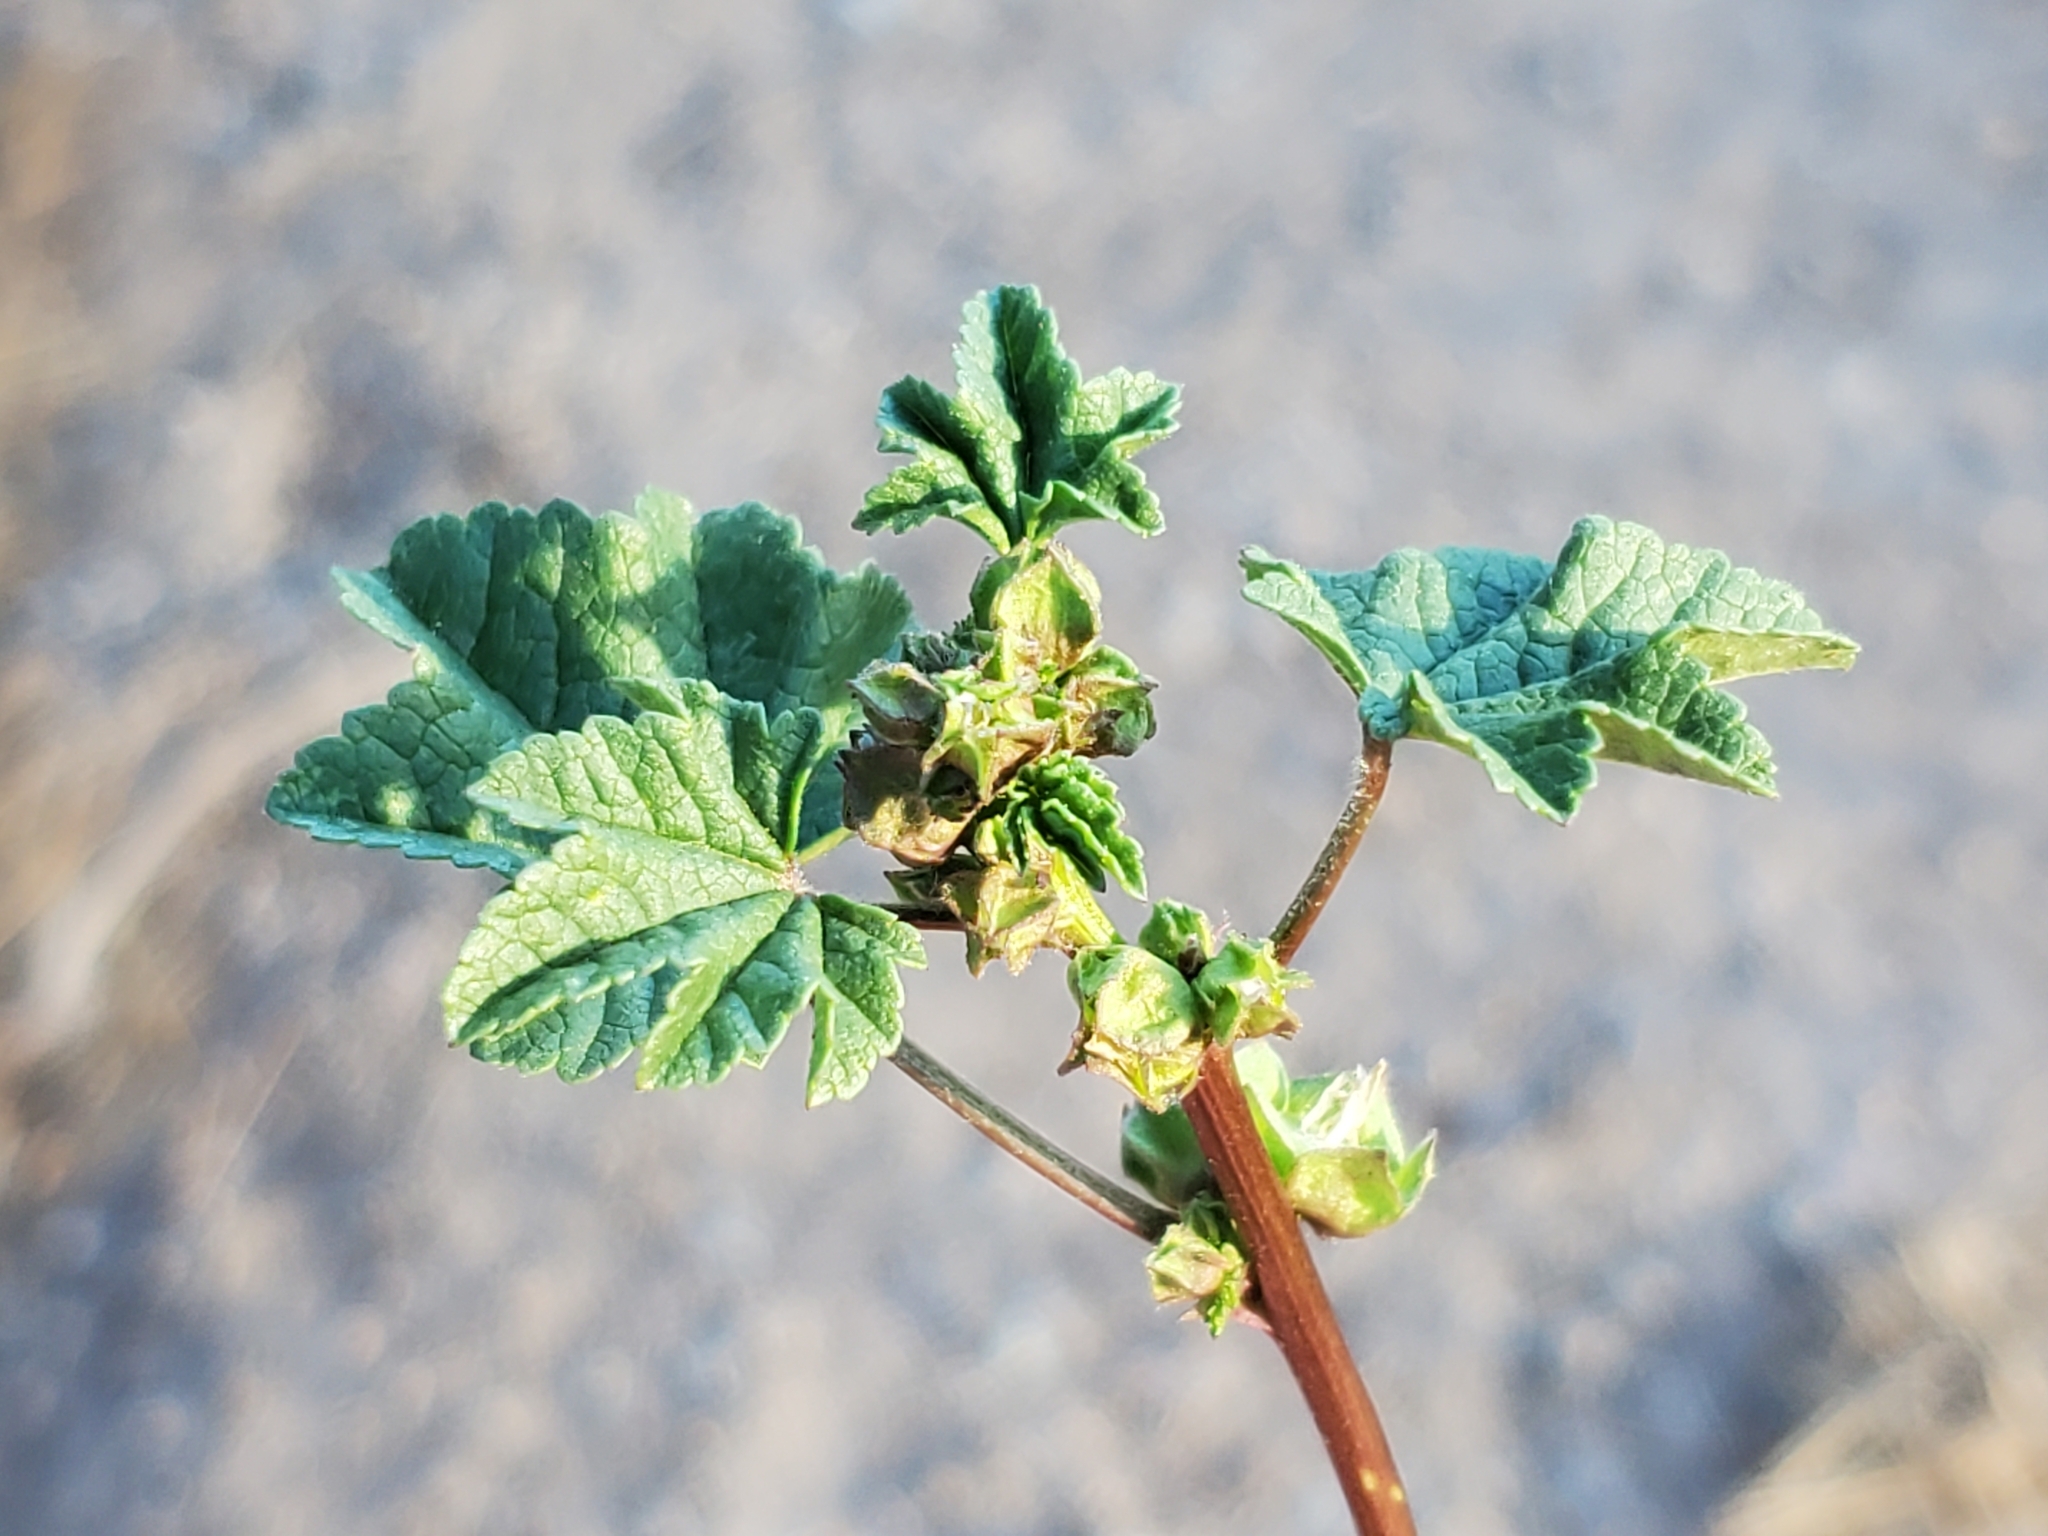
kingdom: Plantae
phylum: Tracheophyta
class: Magnoliopsida
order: Malvales
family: Malvaceae
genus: Malva
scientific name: Malva parviflora
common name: Least mallow
